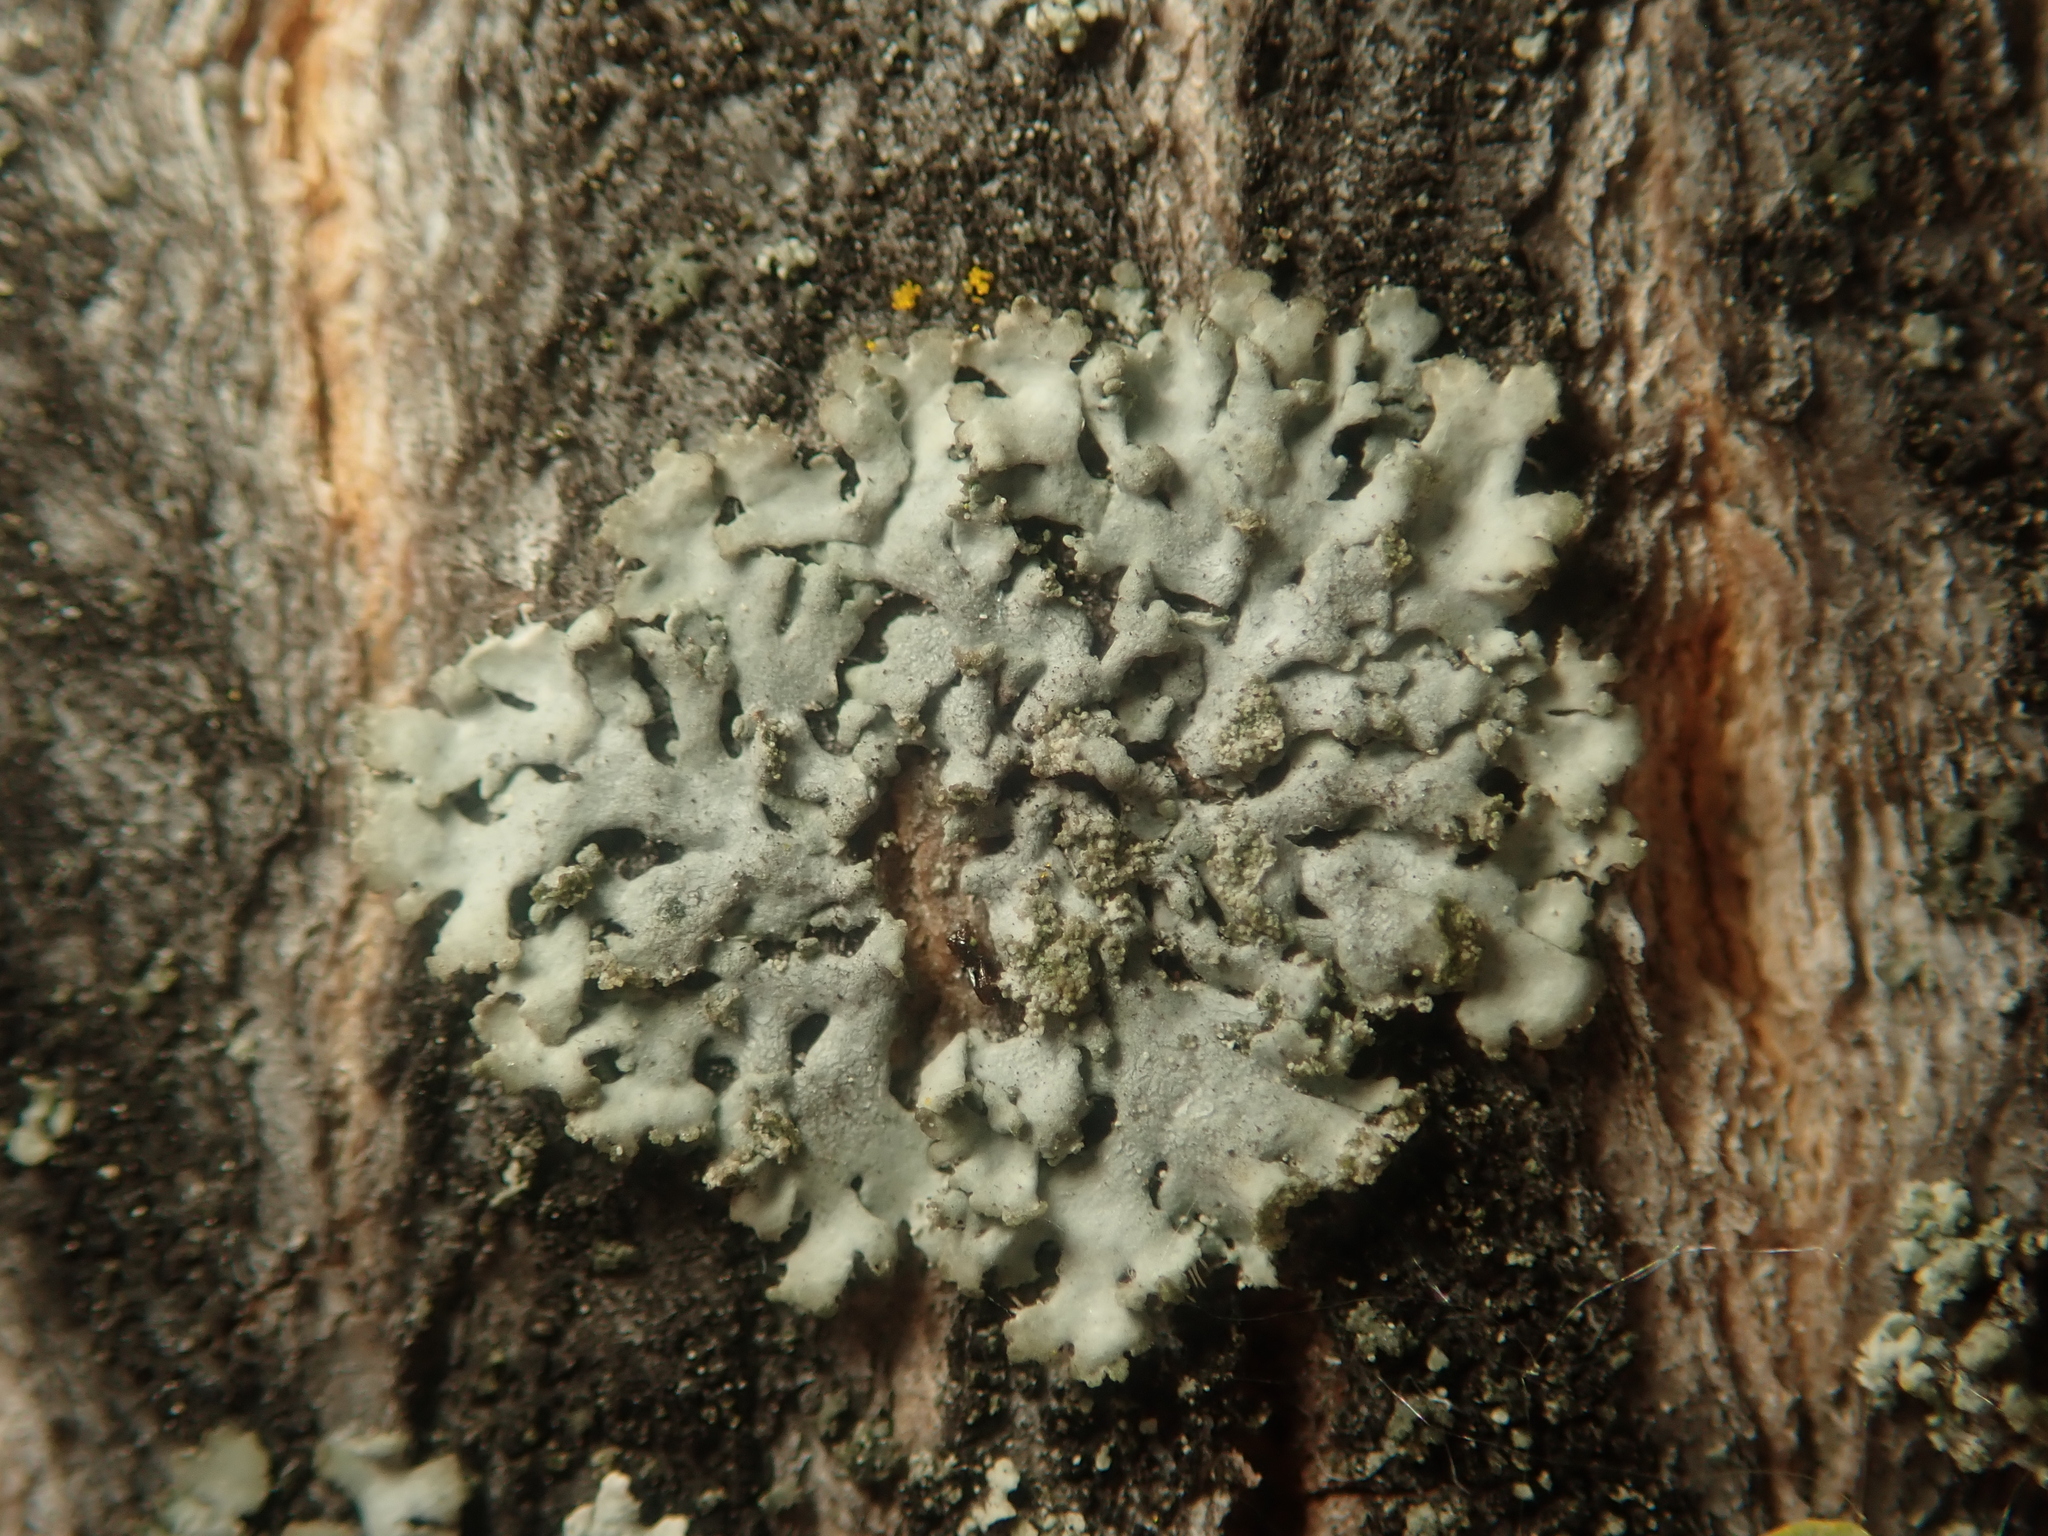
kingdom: Fungi
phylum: Ascomycota
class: Lecanoromycetes
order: Caliciales
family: Physciaceae
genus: Phaeophyscia
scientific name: Phaeophyscia orbicularis
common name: Mealy shadow lichen
